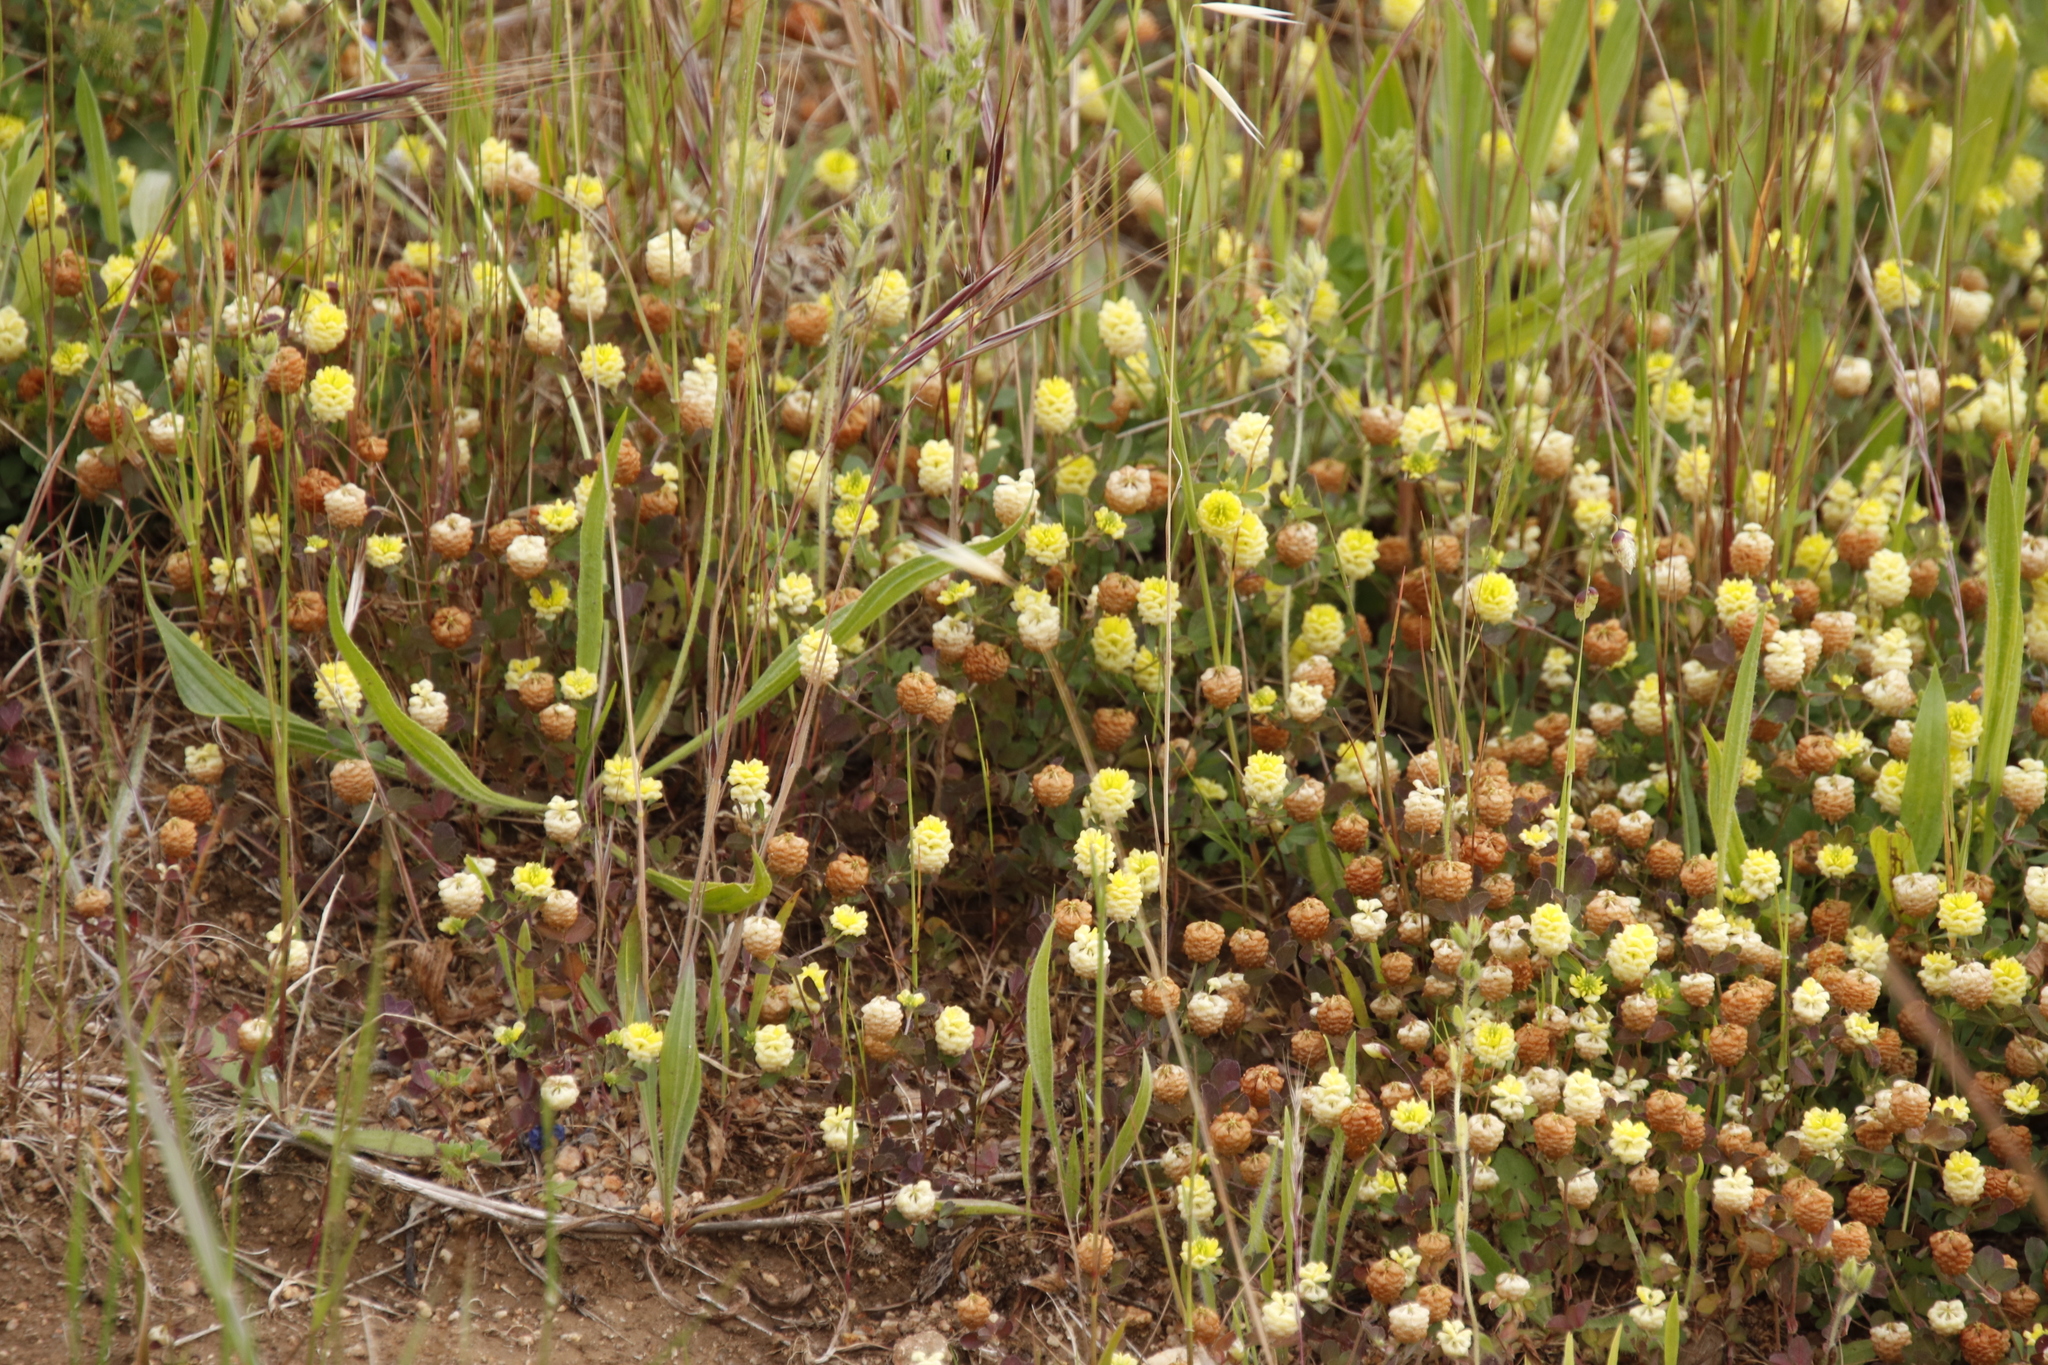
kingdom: Plantae
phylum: Tracheophyta
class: Magnoliopsida
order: Fabales
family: Fabaceae
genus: Trifolium
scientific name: Trifolium campestre
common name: Field clover
